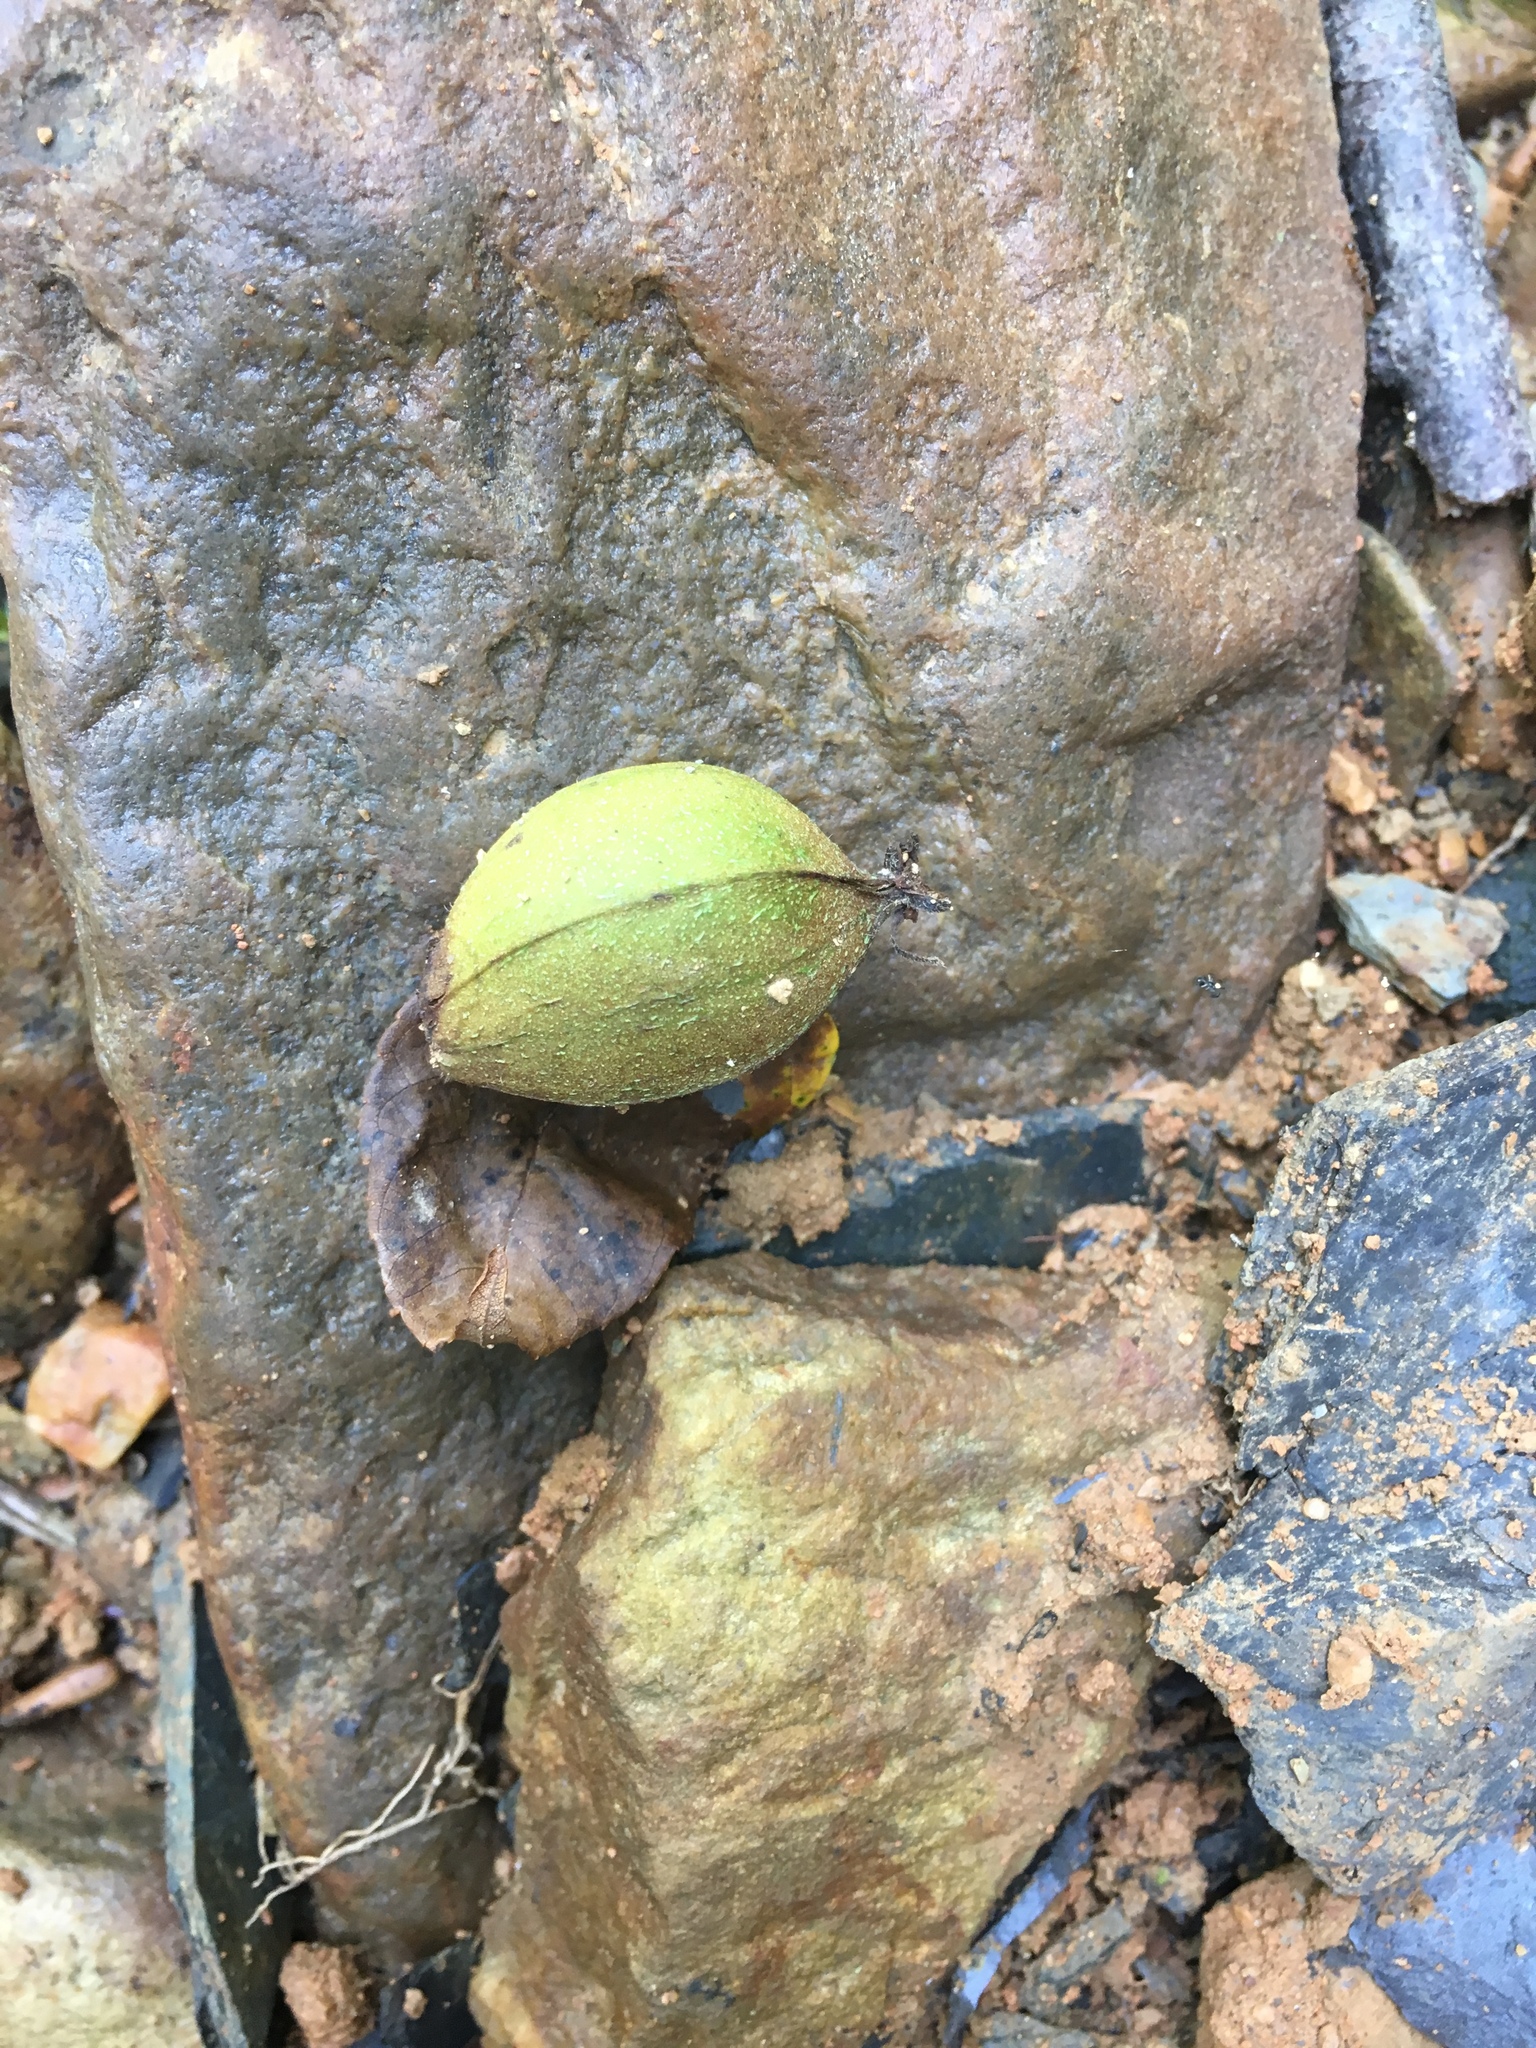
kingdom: Plantae
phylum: Tracheophyta
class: Magnoliopsida
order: Fagales
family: Juglandaceae
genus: Carya
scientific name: Carya laciniosa
